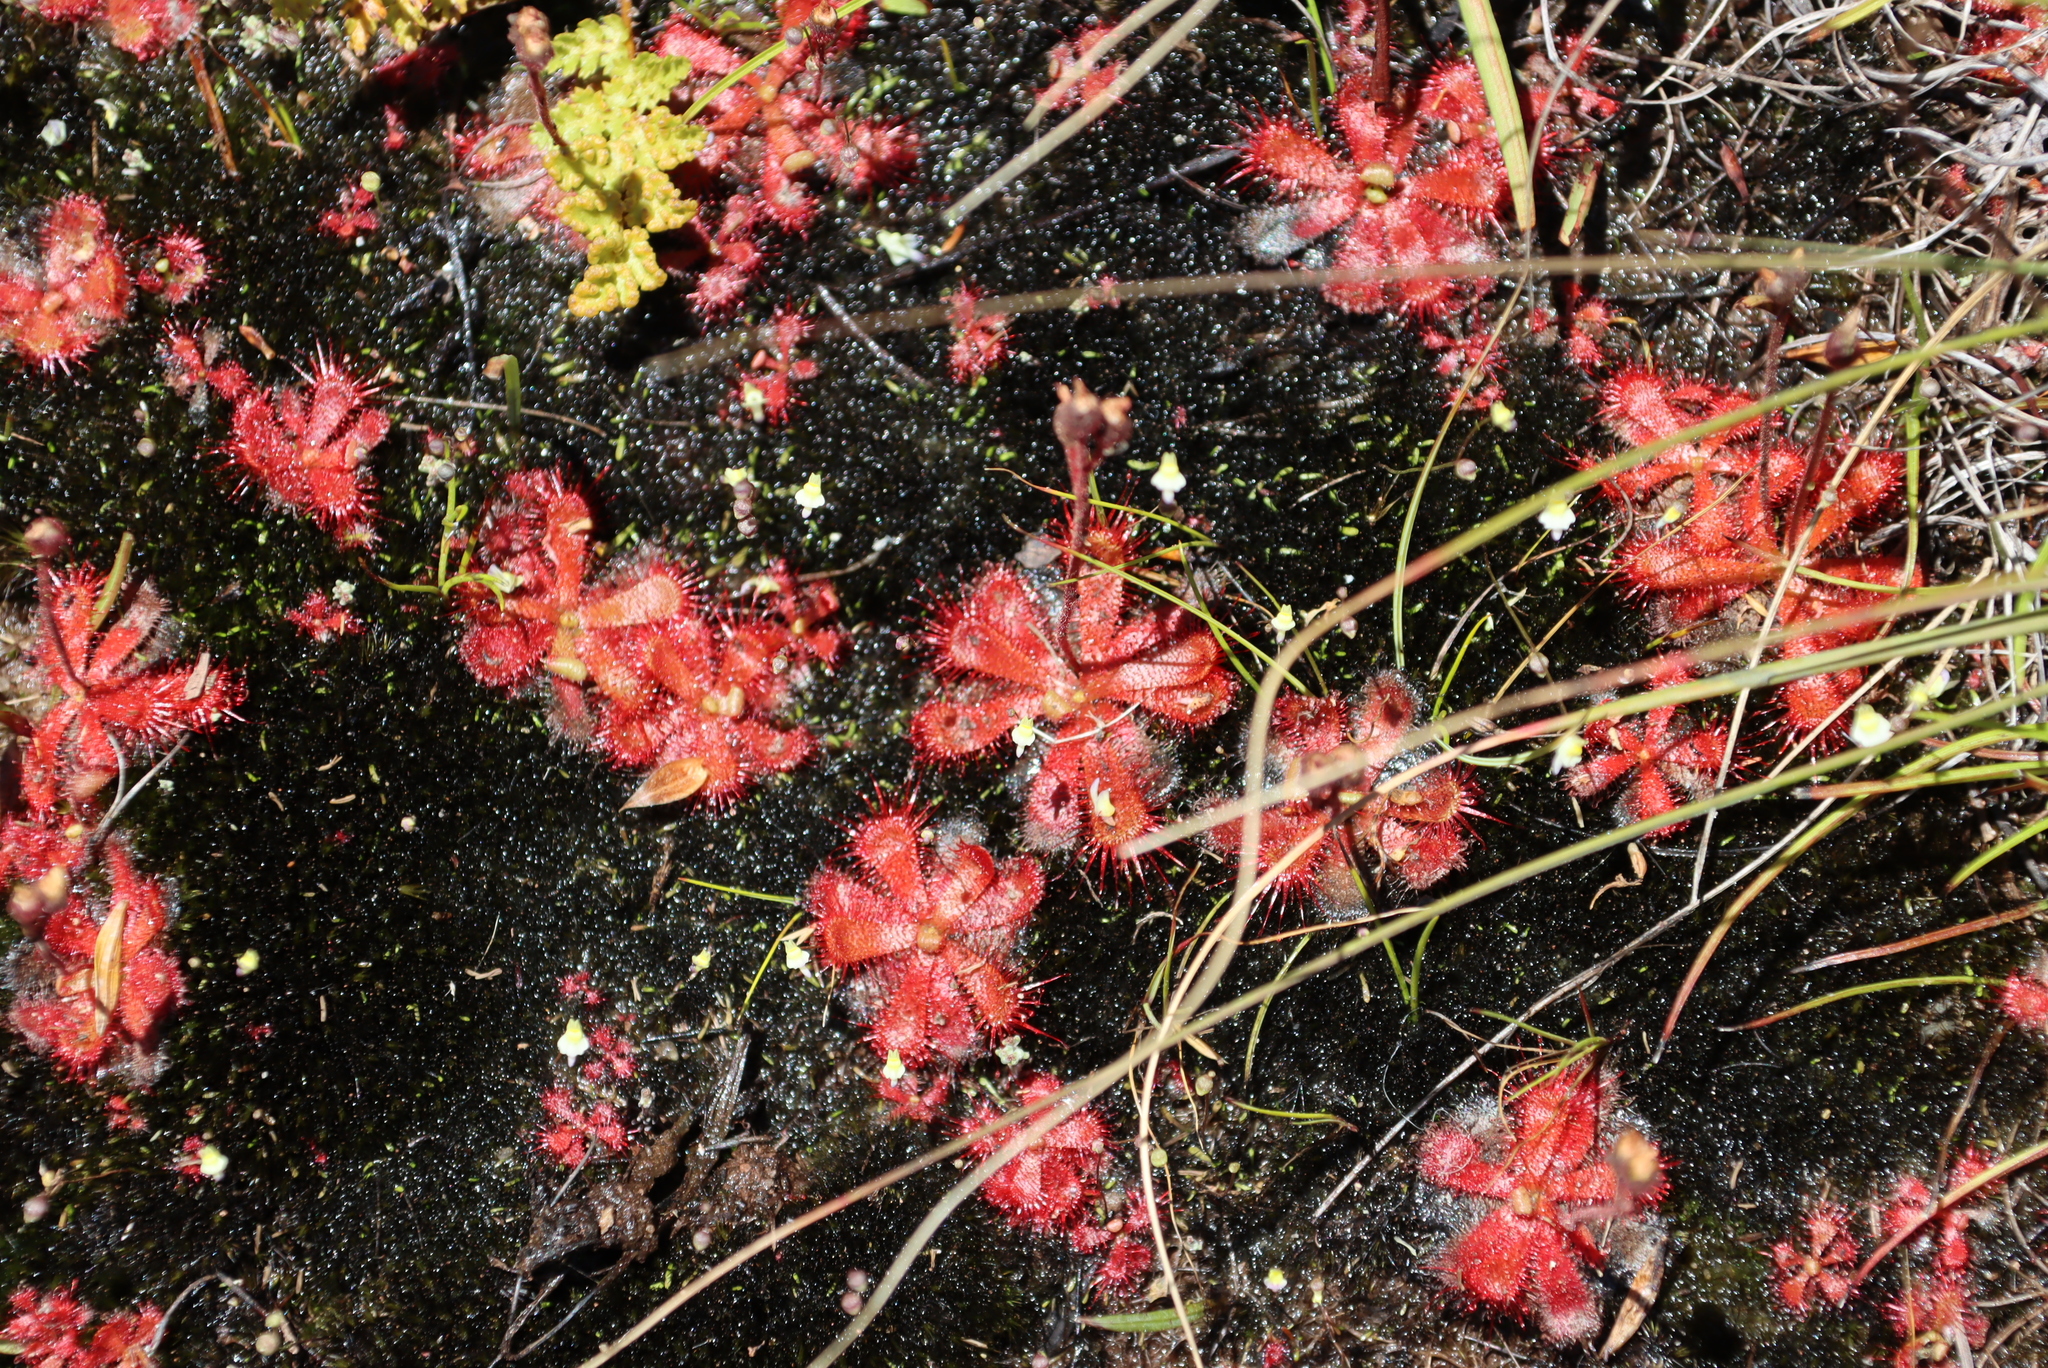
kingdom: Plantae
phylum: Tracheophyta
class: Magnoliopsida
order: Caryophyllales
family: Droseraceae
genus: Drosera
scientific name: Drosera trinervia
